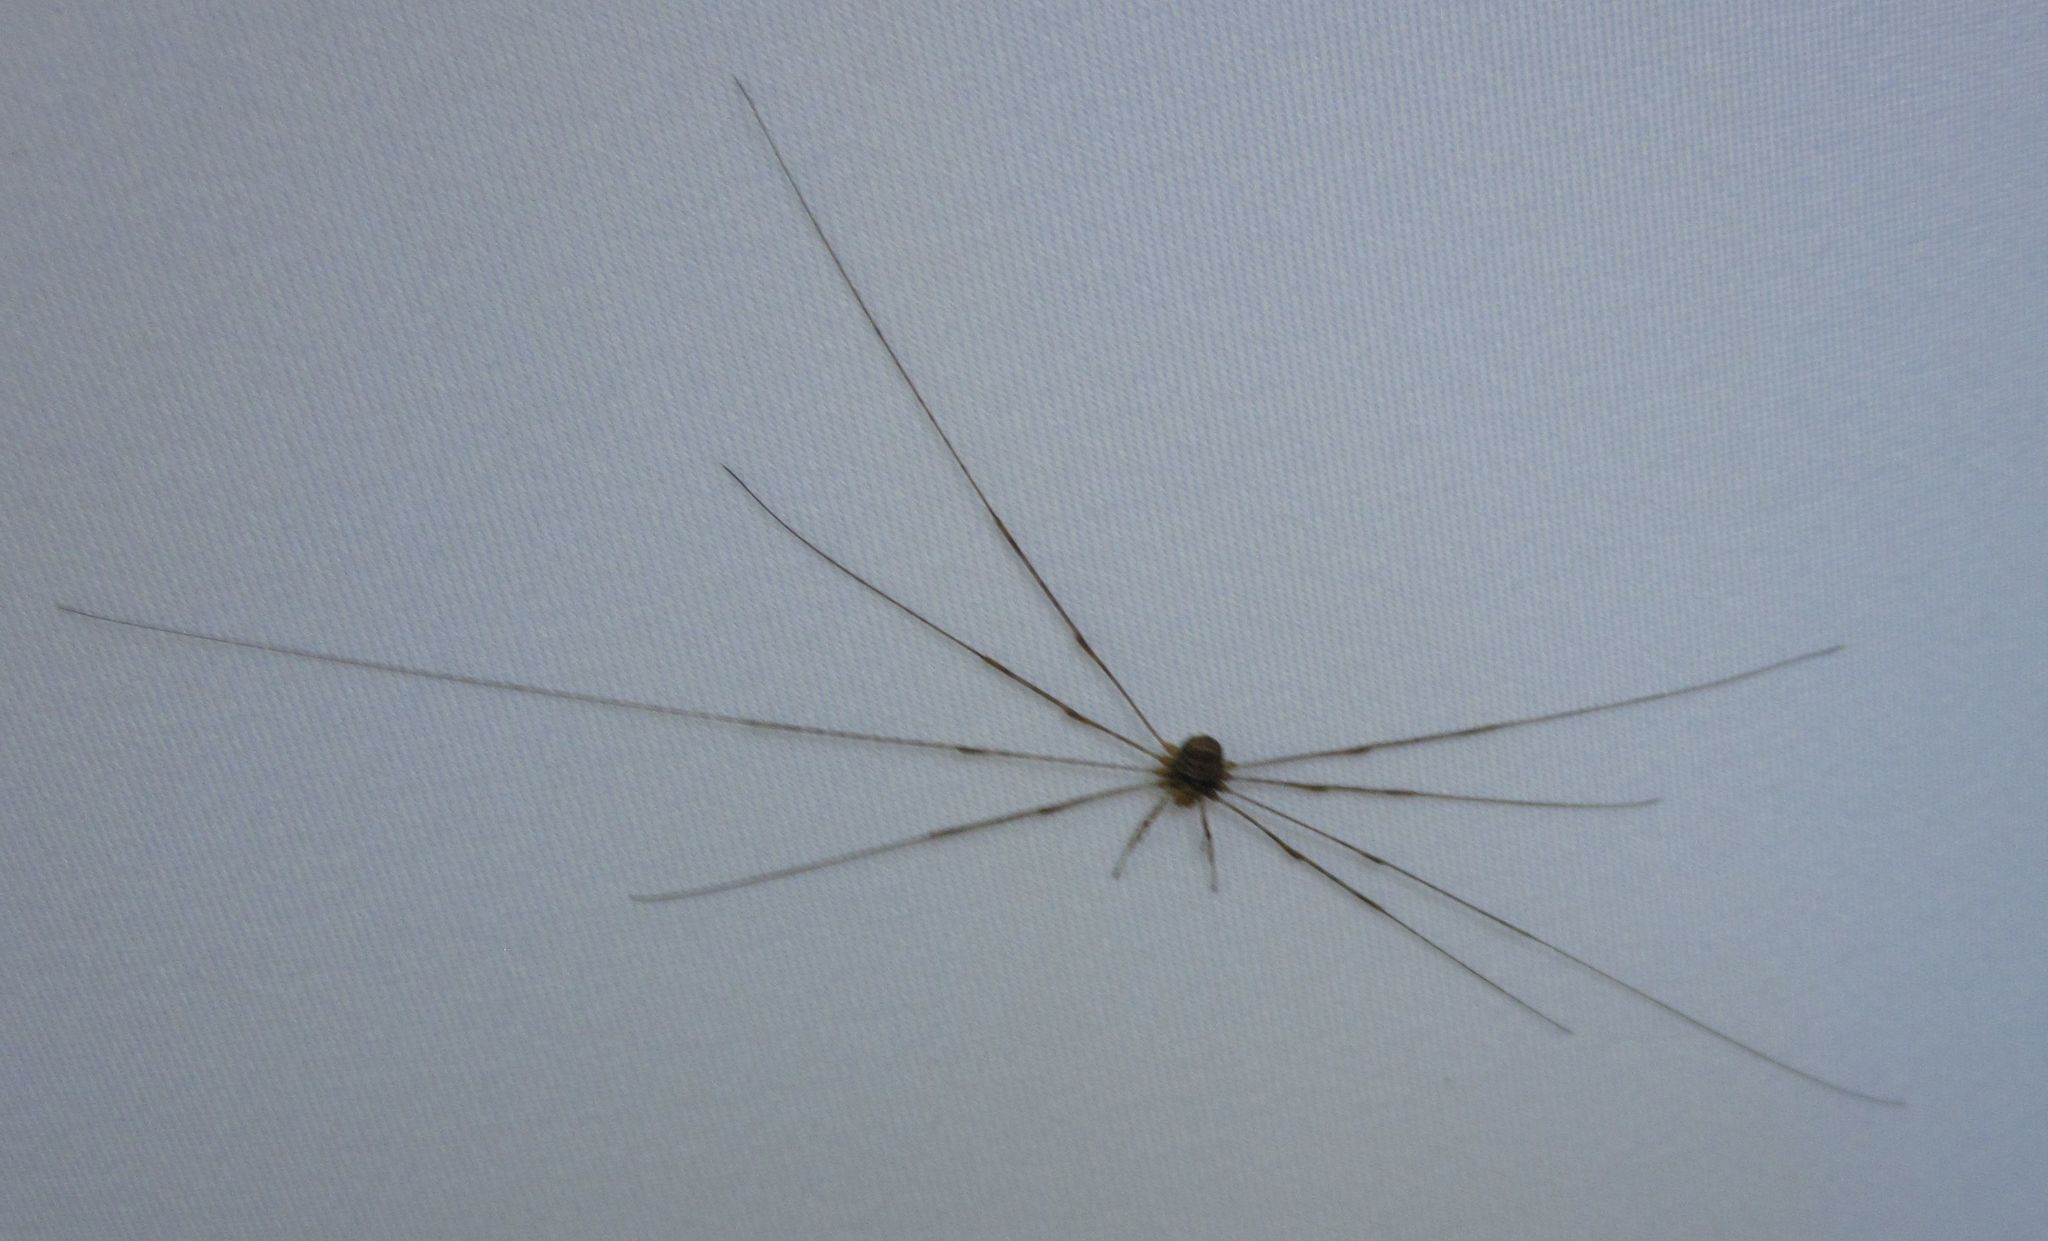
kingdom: Animalia
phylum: Arthropoda
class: Arachnida
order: Opiliones
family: Phalangiidae
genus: Dicranopalpus
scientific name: Dicranopalpus ramosus
